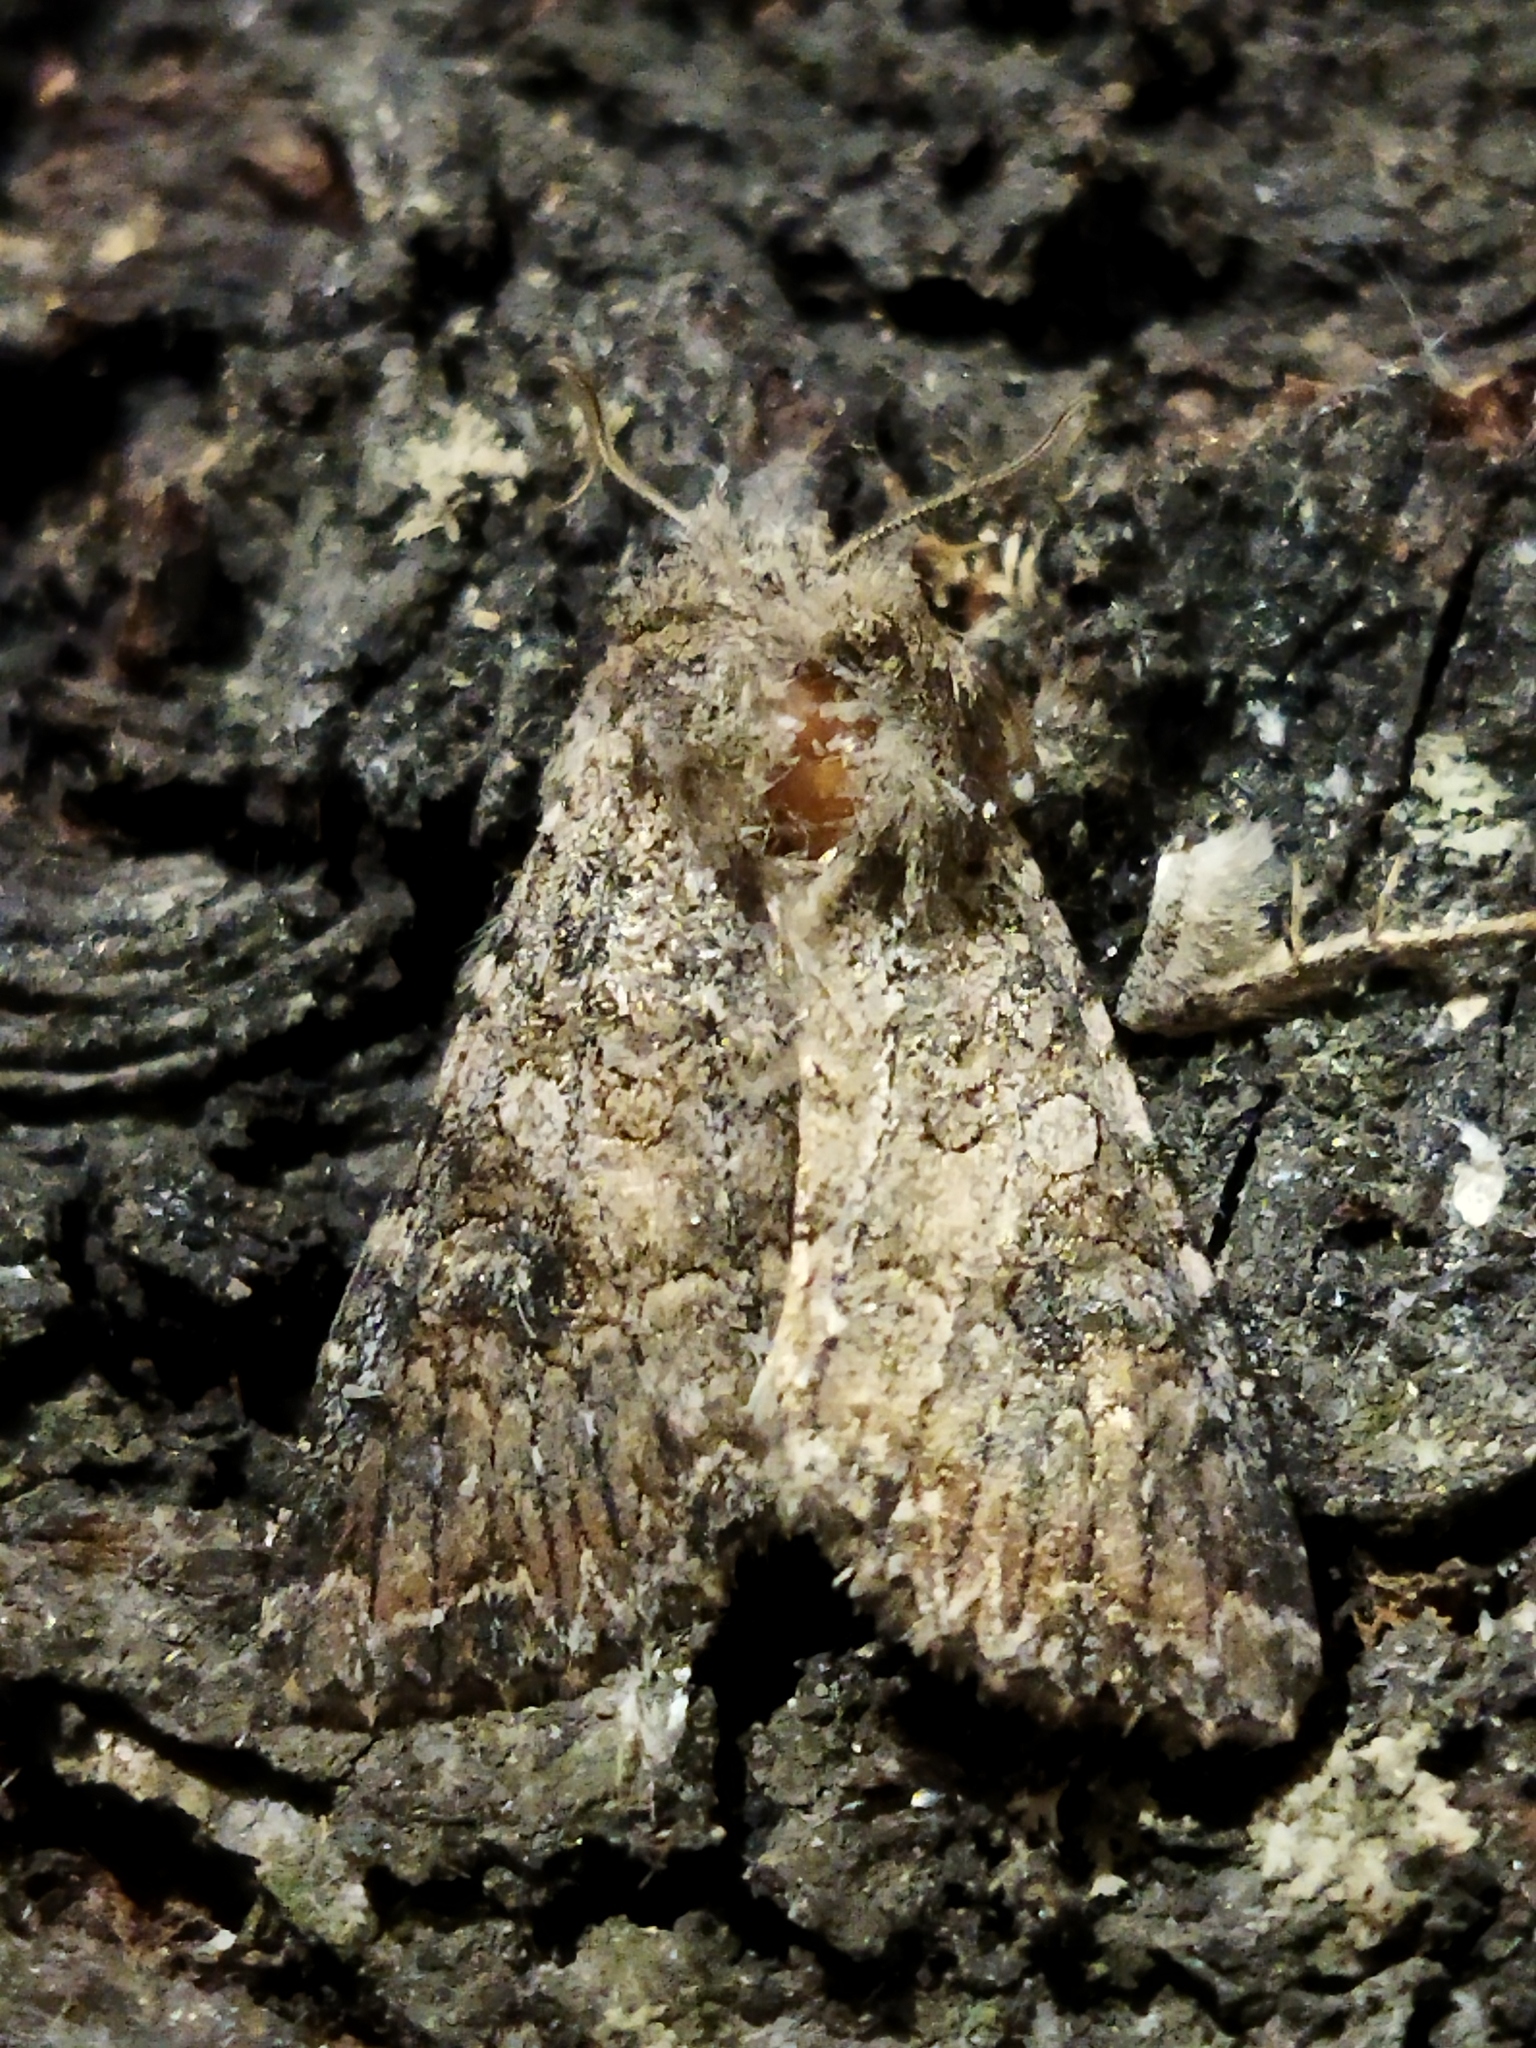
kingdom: Animalia
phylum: Arthropoda
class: Insecta
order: Lepidoptera
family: Noctuidae
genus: Anarta
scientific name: Anarta trifolii
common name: Clover cutworm moth
